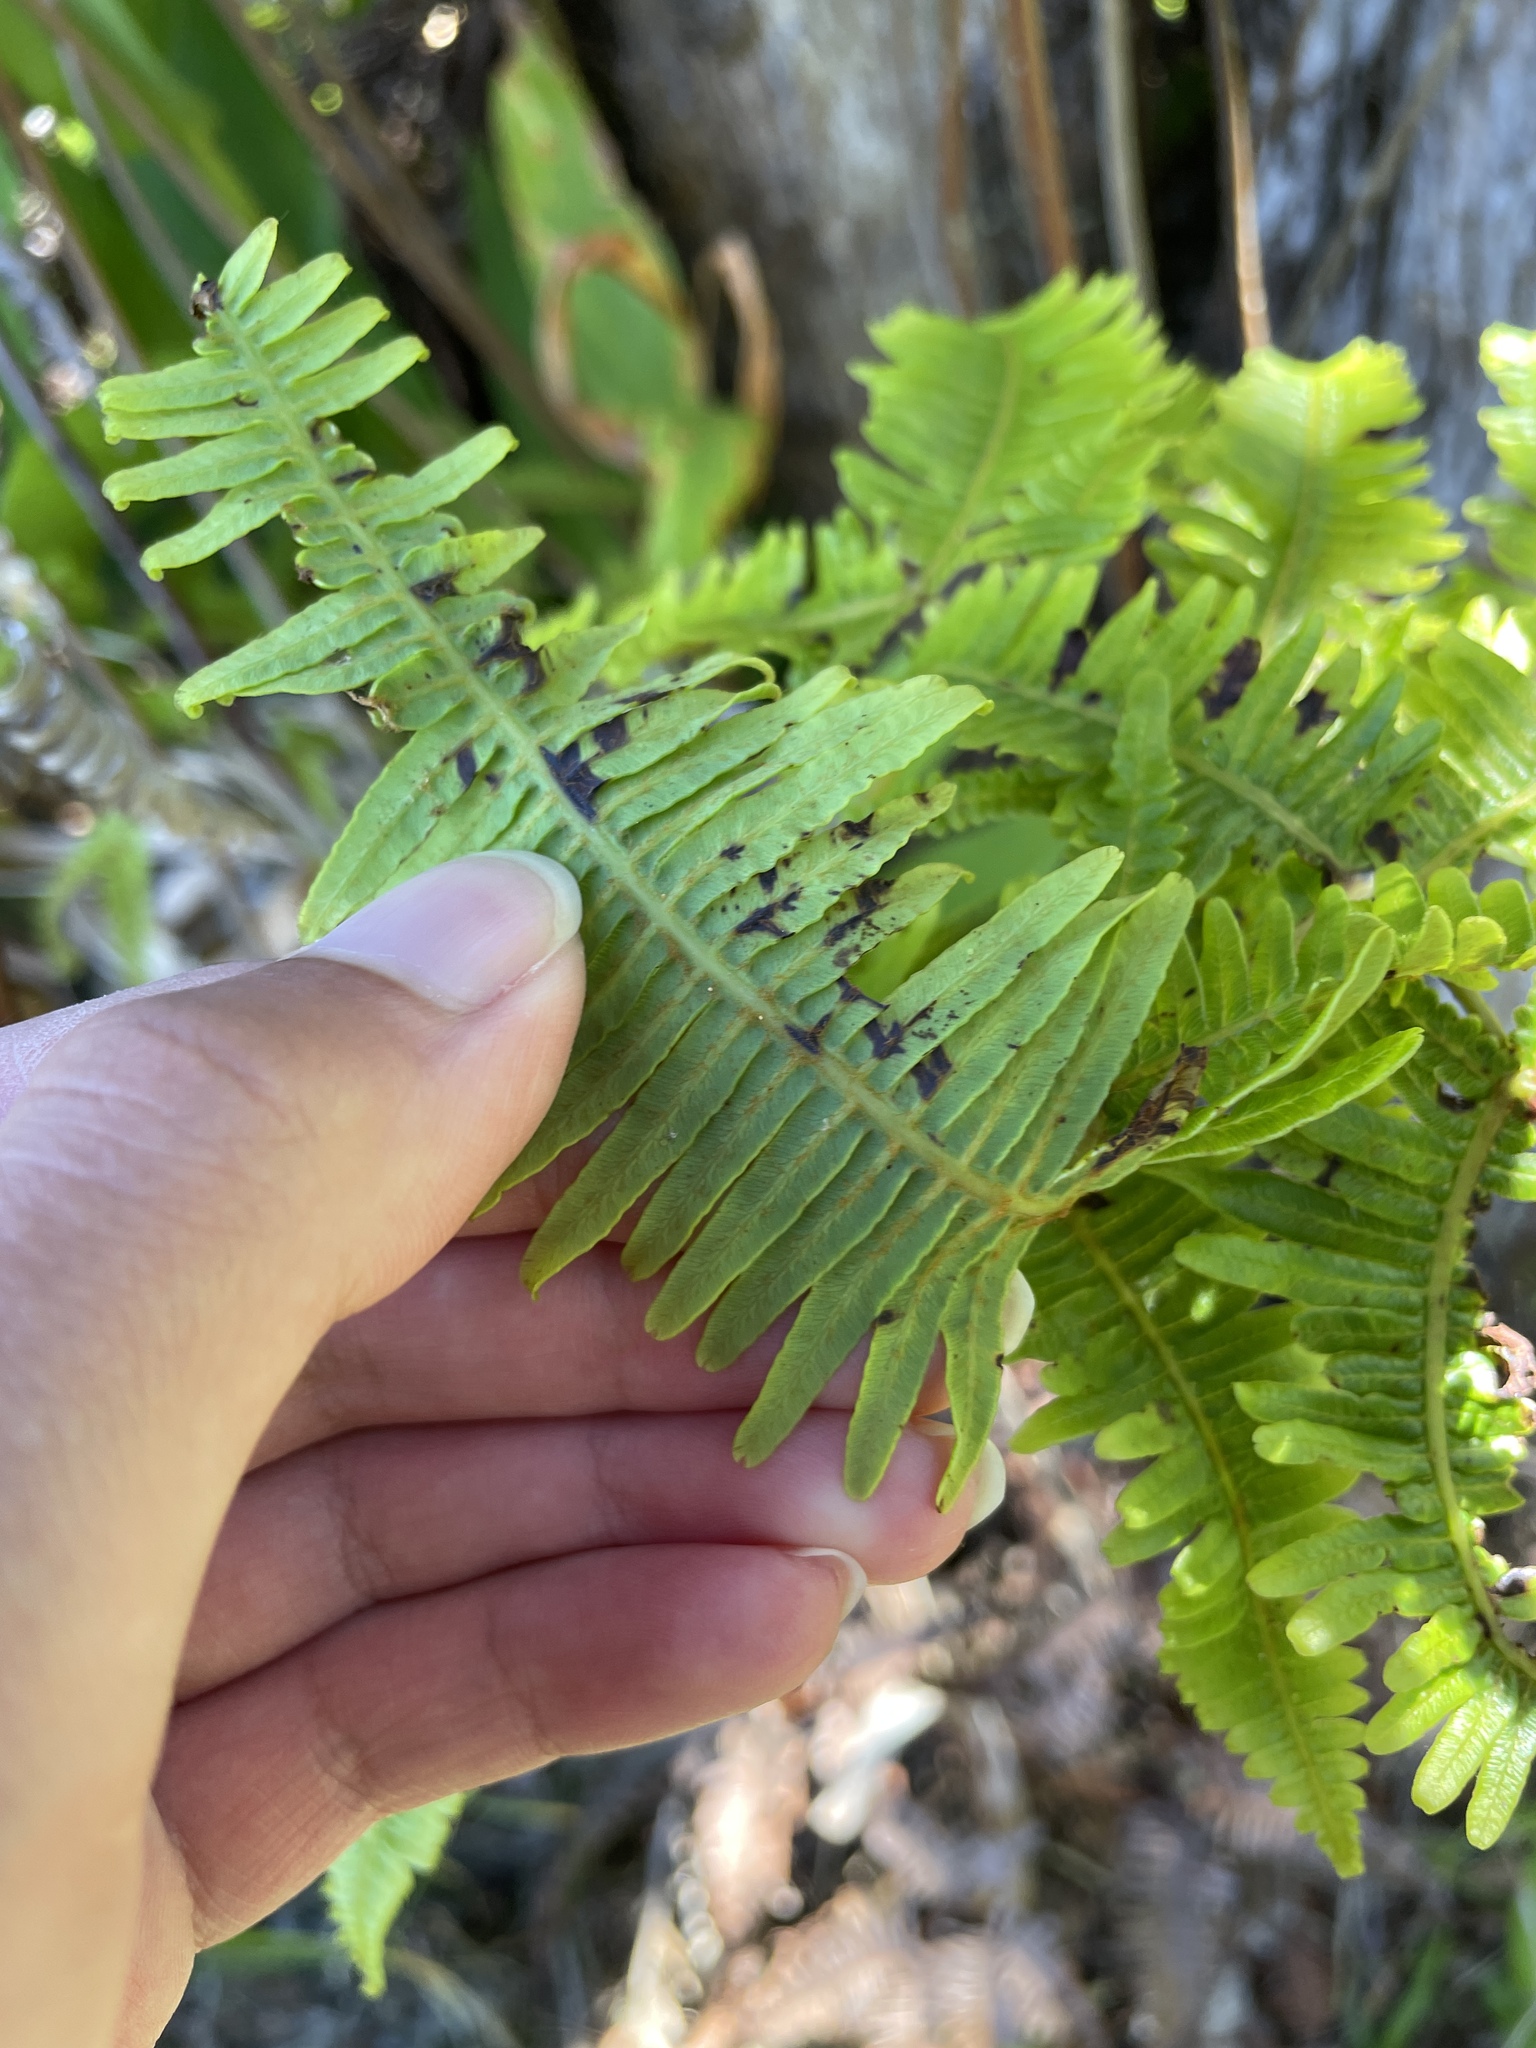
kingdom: Plantae
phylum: Tracheophyta
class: Polypodiopsida
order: Gleicheniales
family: Gleicheniaceae
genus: Dicranopteris
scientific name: Dicranopteris linearis
